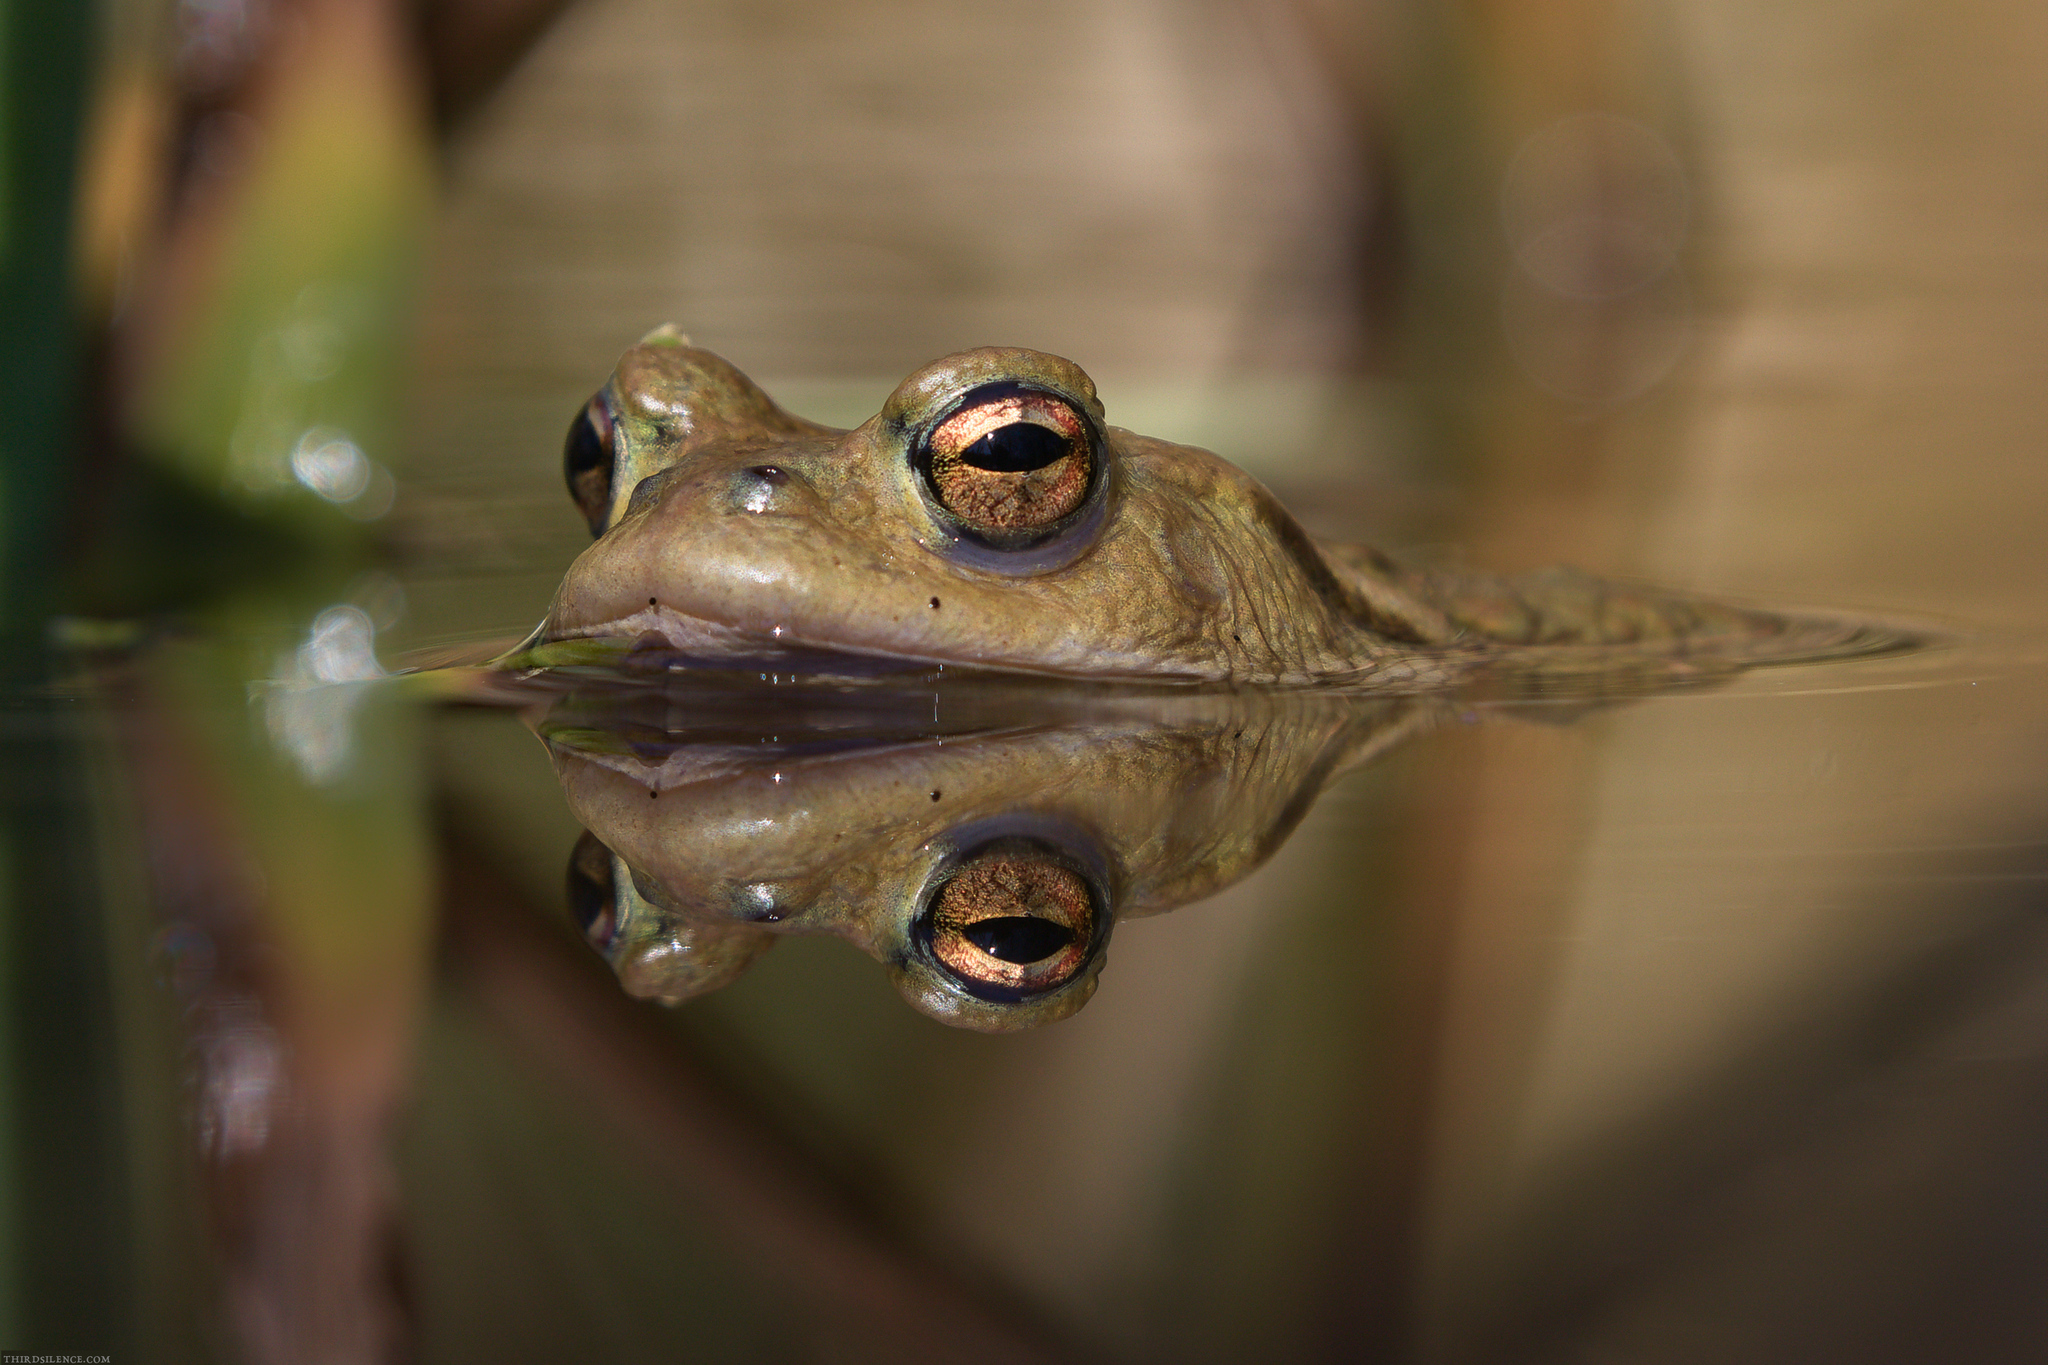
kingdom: Animalia
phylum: Chordata
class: Amphibia
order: Anura
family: Bufonidae
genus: Bufo
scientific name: Bufo bufo
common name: Common toad
